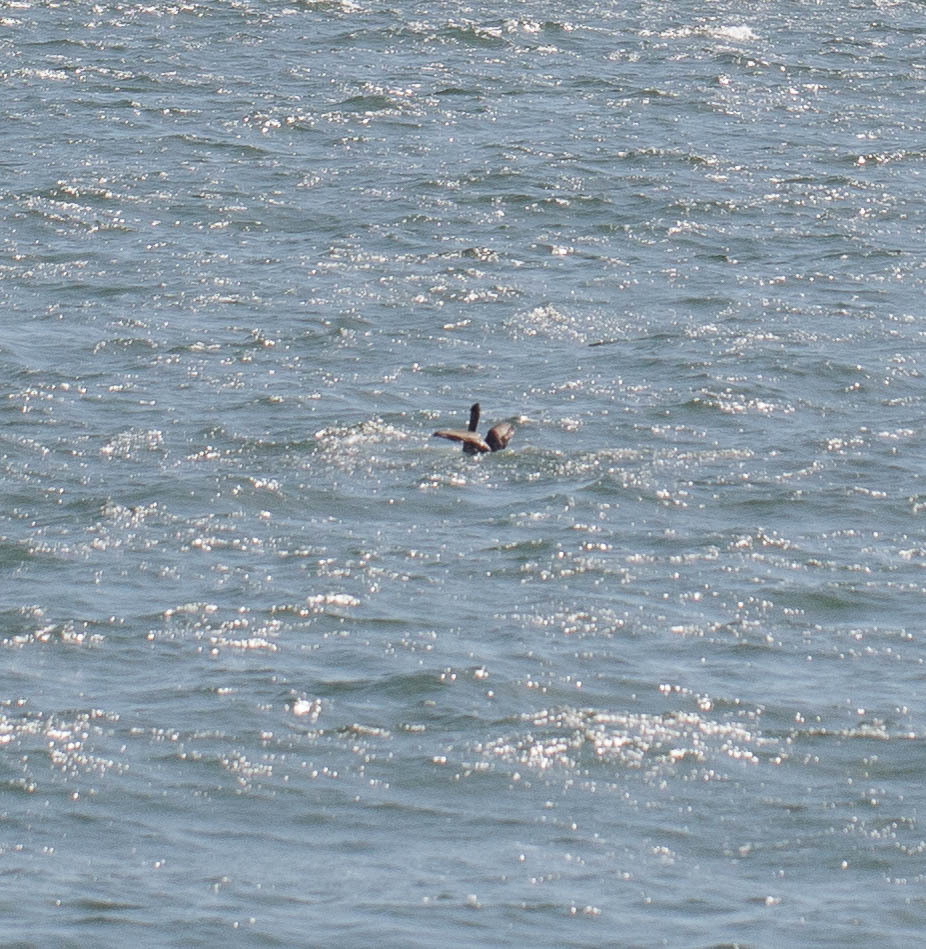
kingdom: Animalia
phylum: Chordata
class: Aves
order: Pelecaniformes
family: Pelecanidae
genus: Pelecanus
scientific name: Pelecanus occidentalis
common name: Brown pelican
